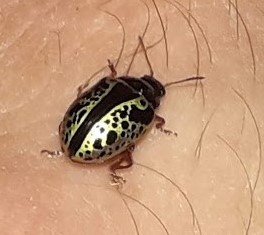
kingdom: Animalia
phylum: Arthropoda
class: Insecta
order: Coleoptera
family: Chrysomelidae
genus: Calligrapha
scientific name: Calligrapha pantherina
